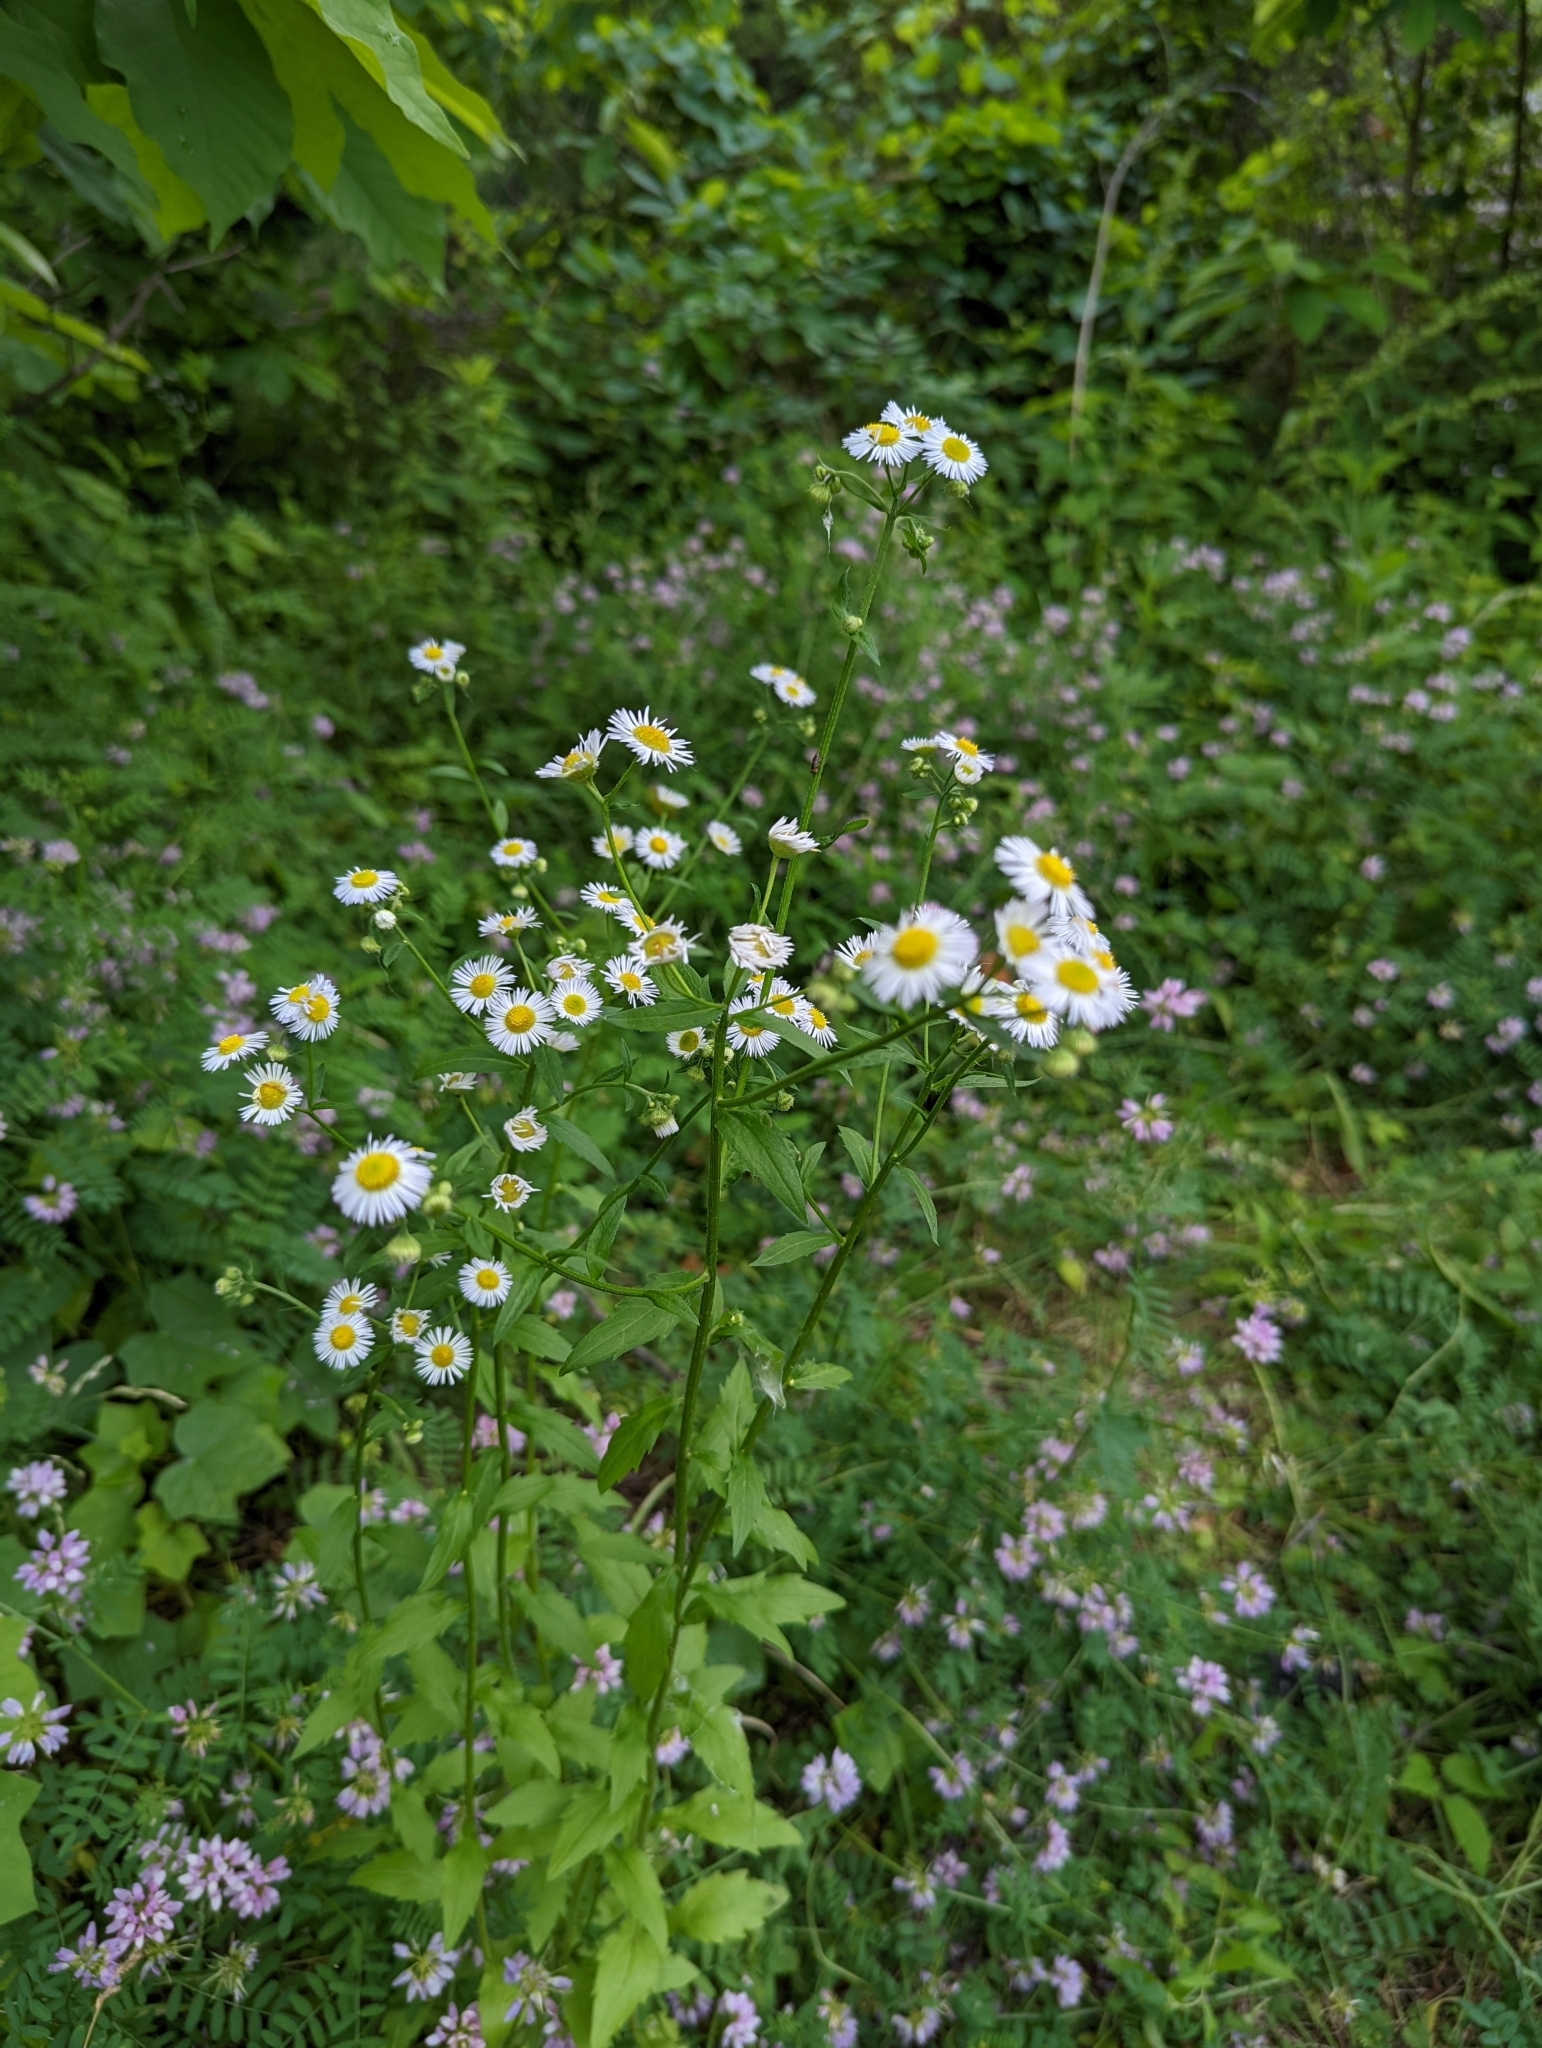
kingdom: Plantae
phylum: Tracheophyta
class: Magnoliopsida
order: Asterales
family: Asteraceae
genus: Erigeron
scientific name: Erigeron annuus
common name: Tall fleabane
